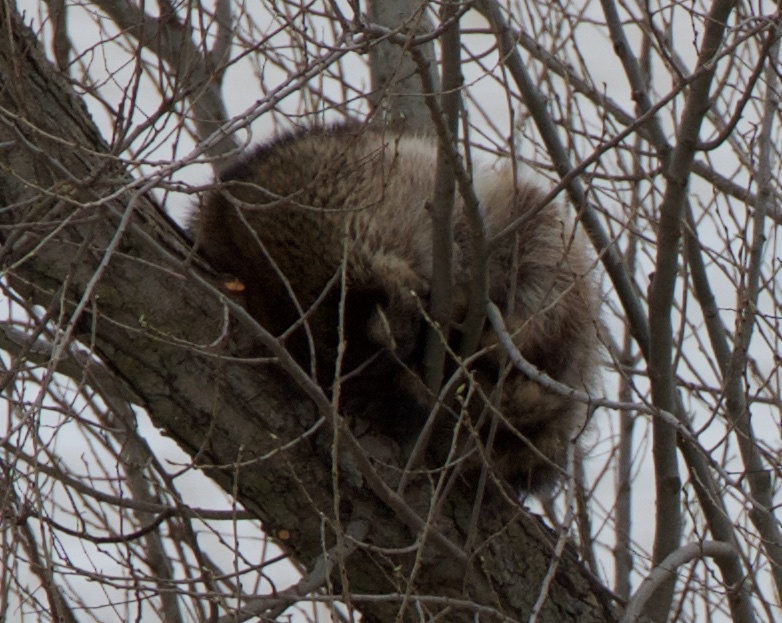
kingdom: Animalia
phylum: Chordata
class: Mammalia
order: Carnivora
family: Procyonidae
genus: Procyon
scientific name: Procyon lotor
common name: Raccoon
